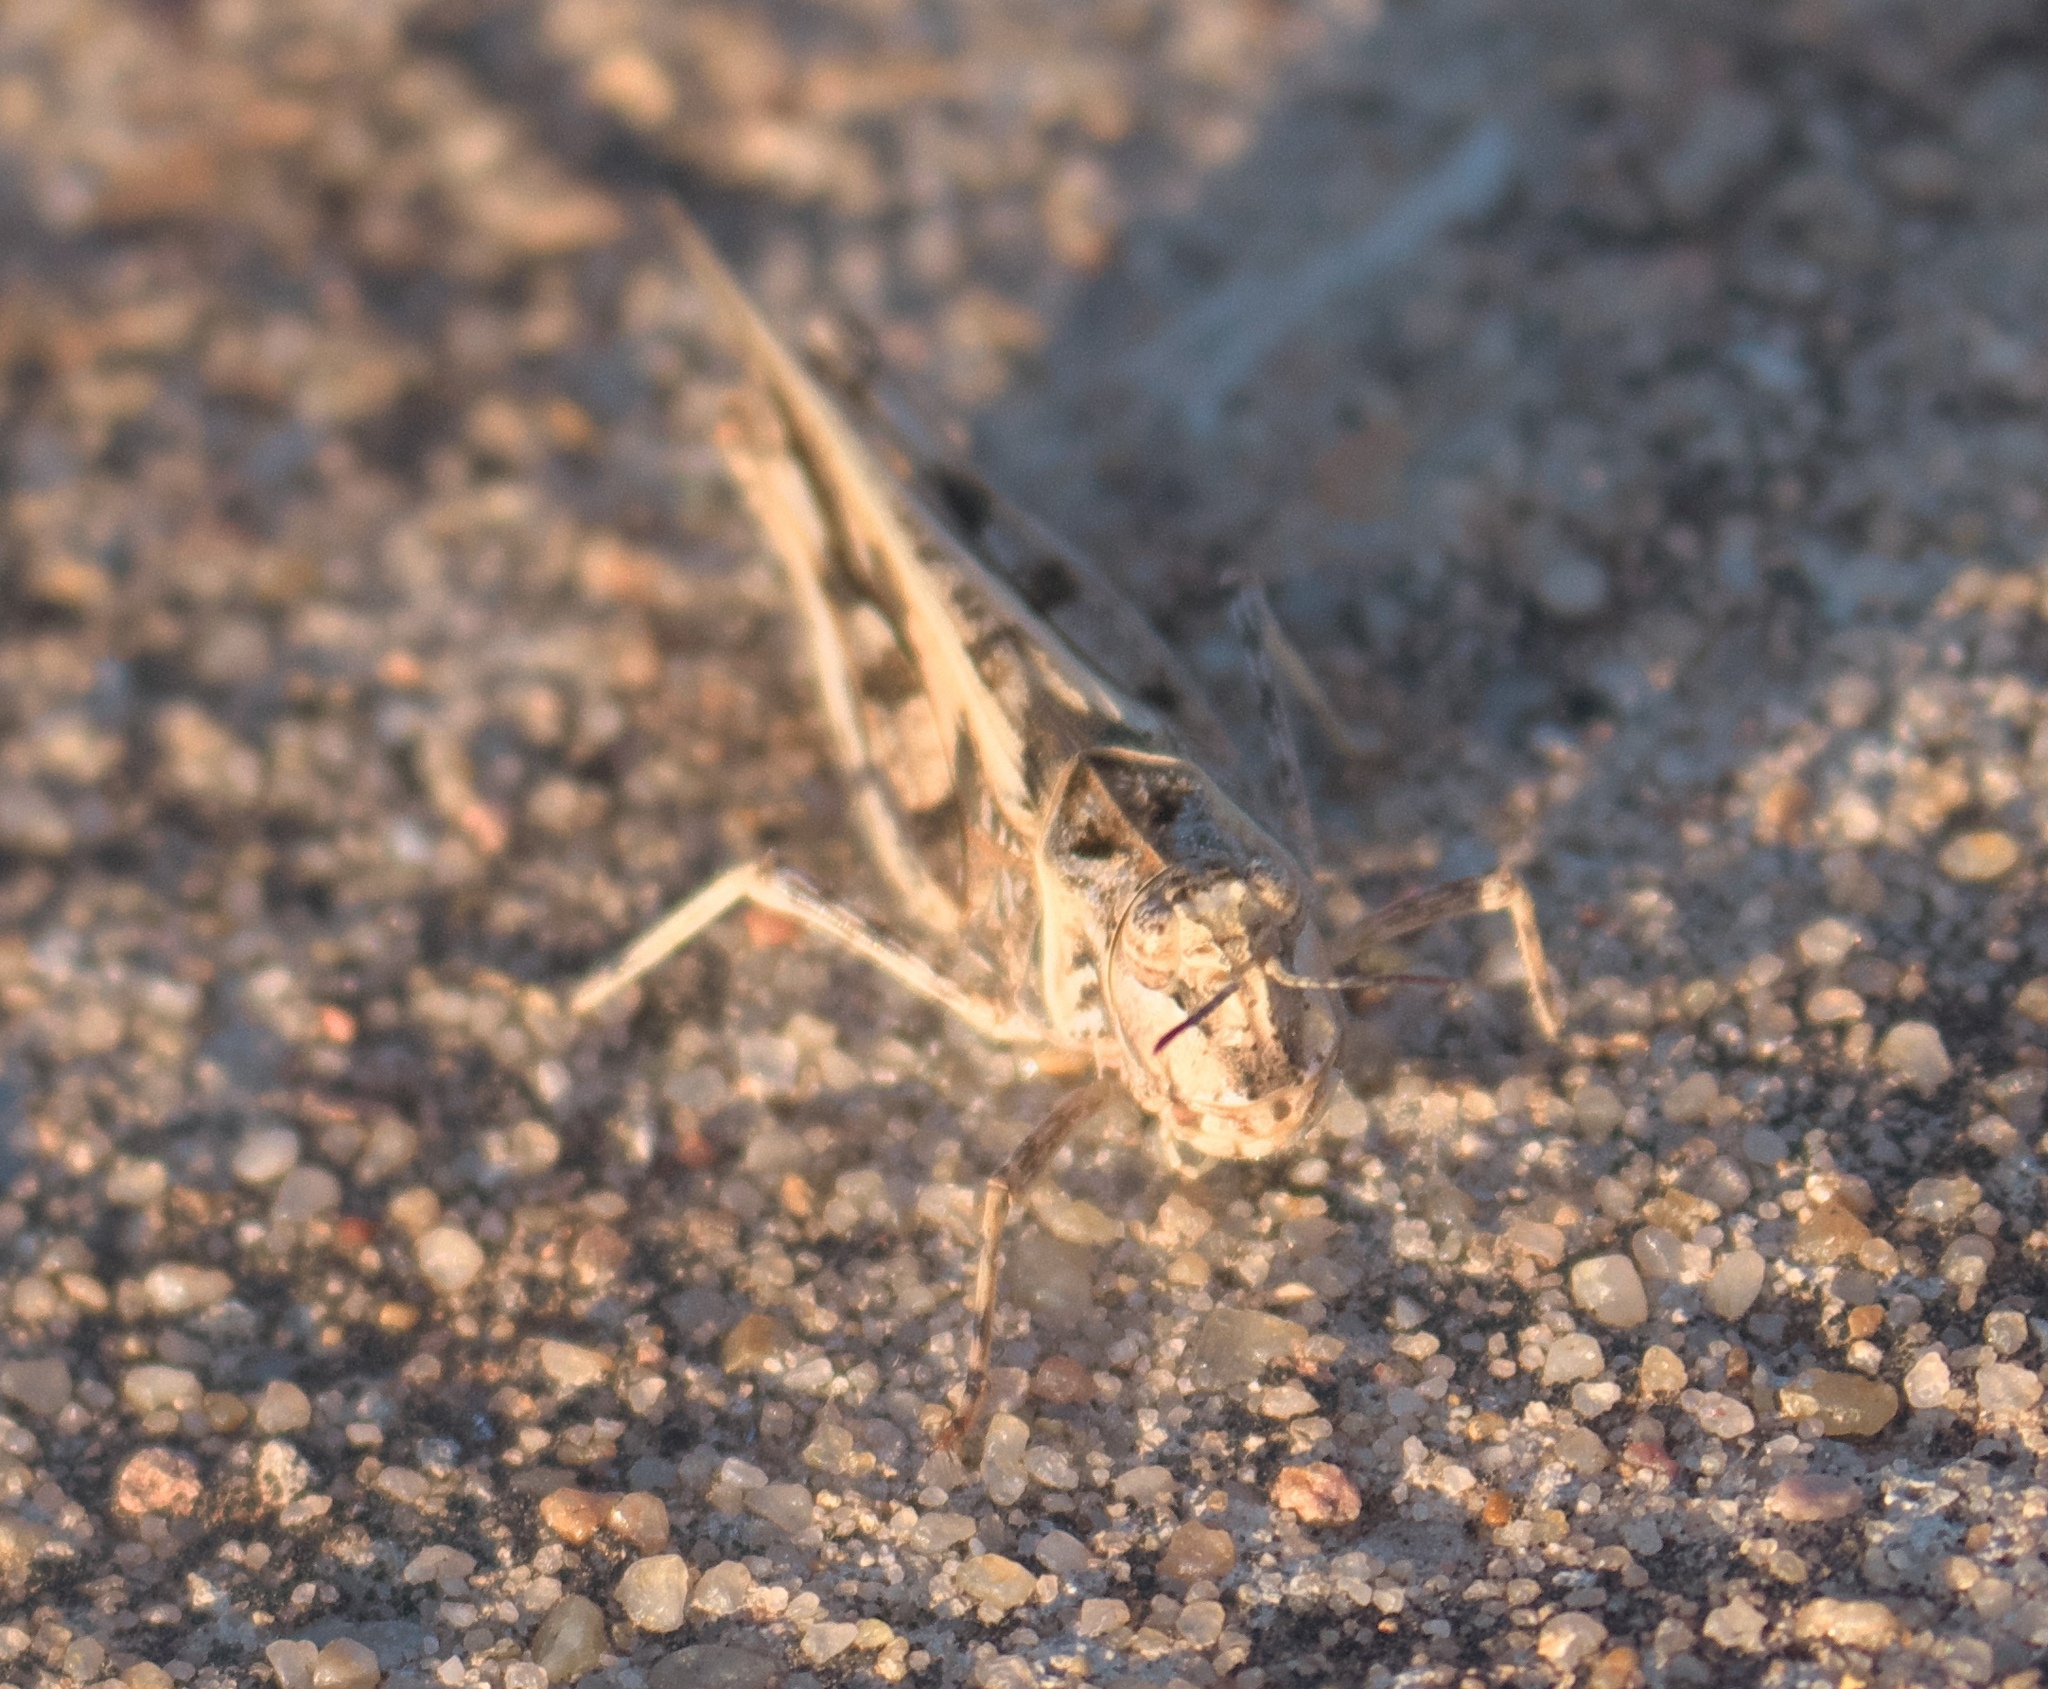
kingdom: Animalia
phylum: Arthropoda
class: Insecta
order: Orthoptera
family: Acrididae
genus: Trachyrhachys
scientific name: Trachyrhachys kiowa
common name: Kiowa grasshopper
